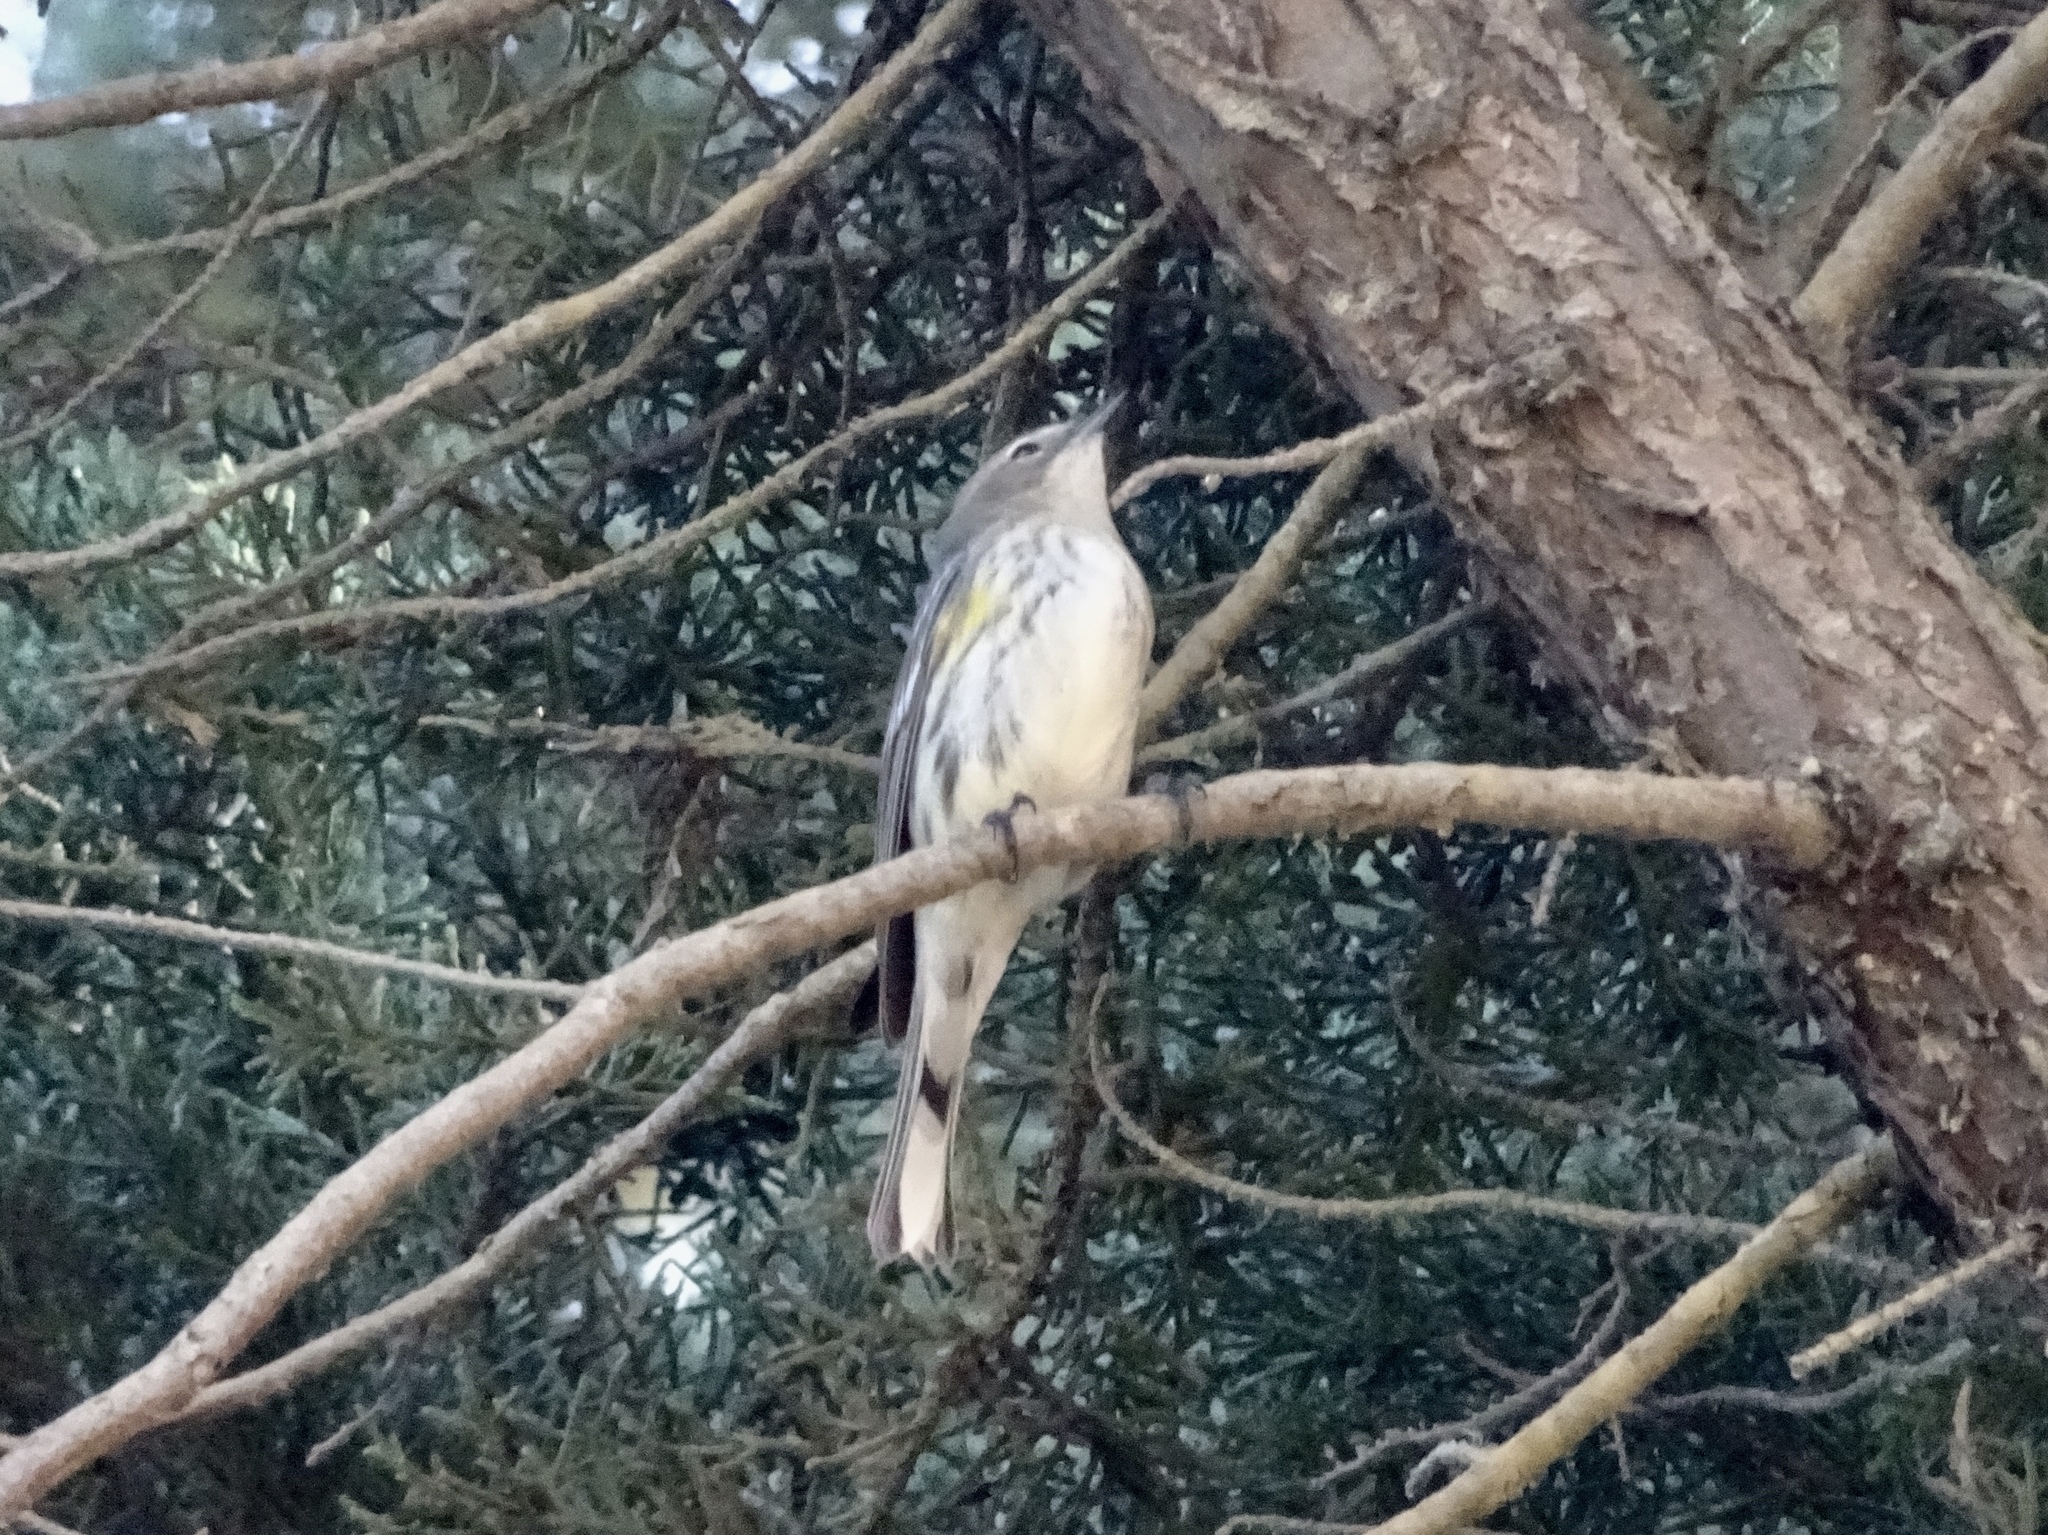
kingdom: Animalia
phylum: Chordata
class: Aves
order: Passeriformes
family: Parulidae
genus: Setophaga
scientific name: Setophaga coronata
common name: Myrtle warbler
